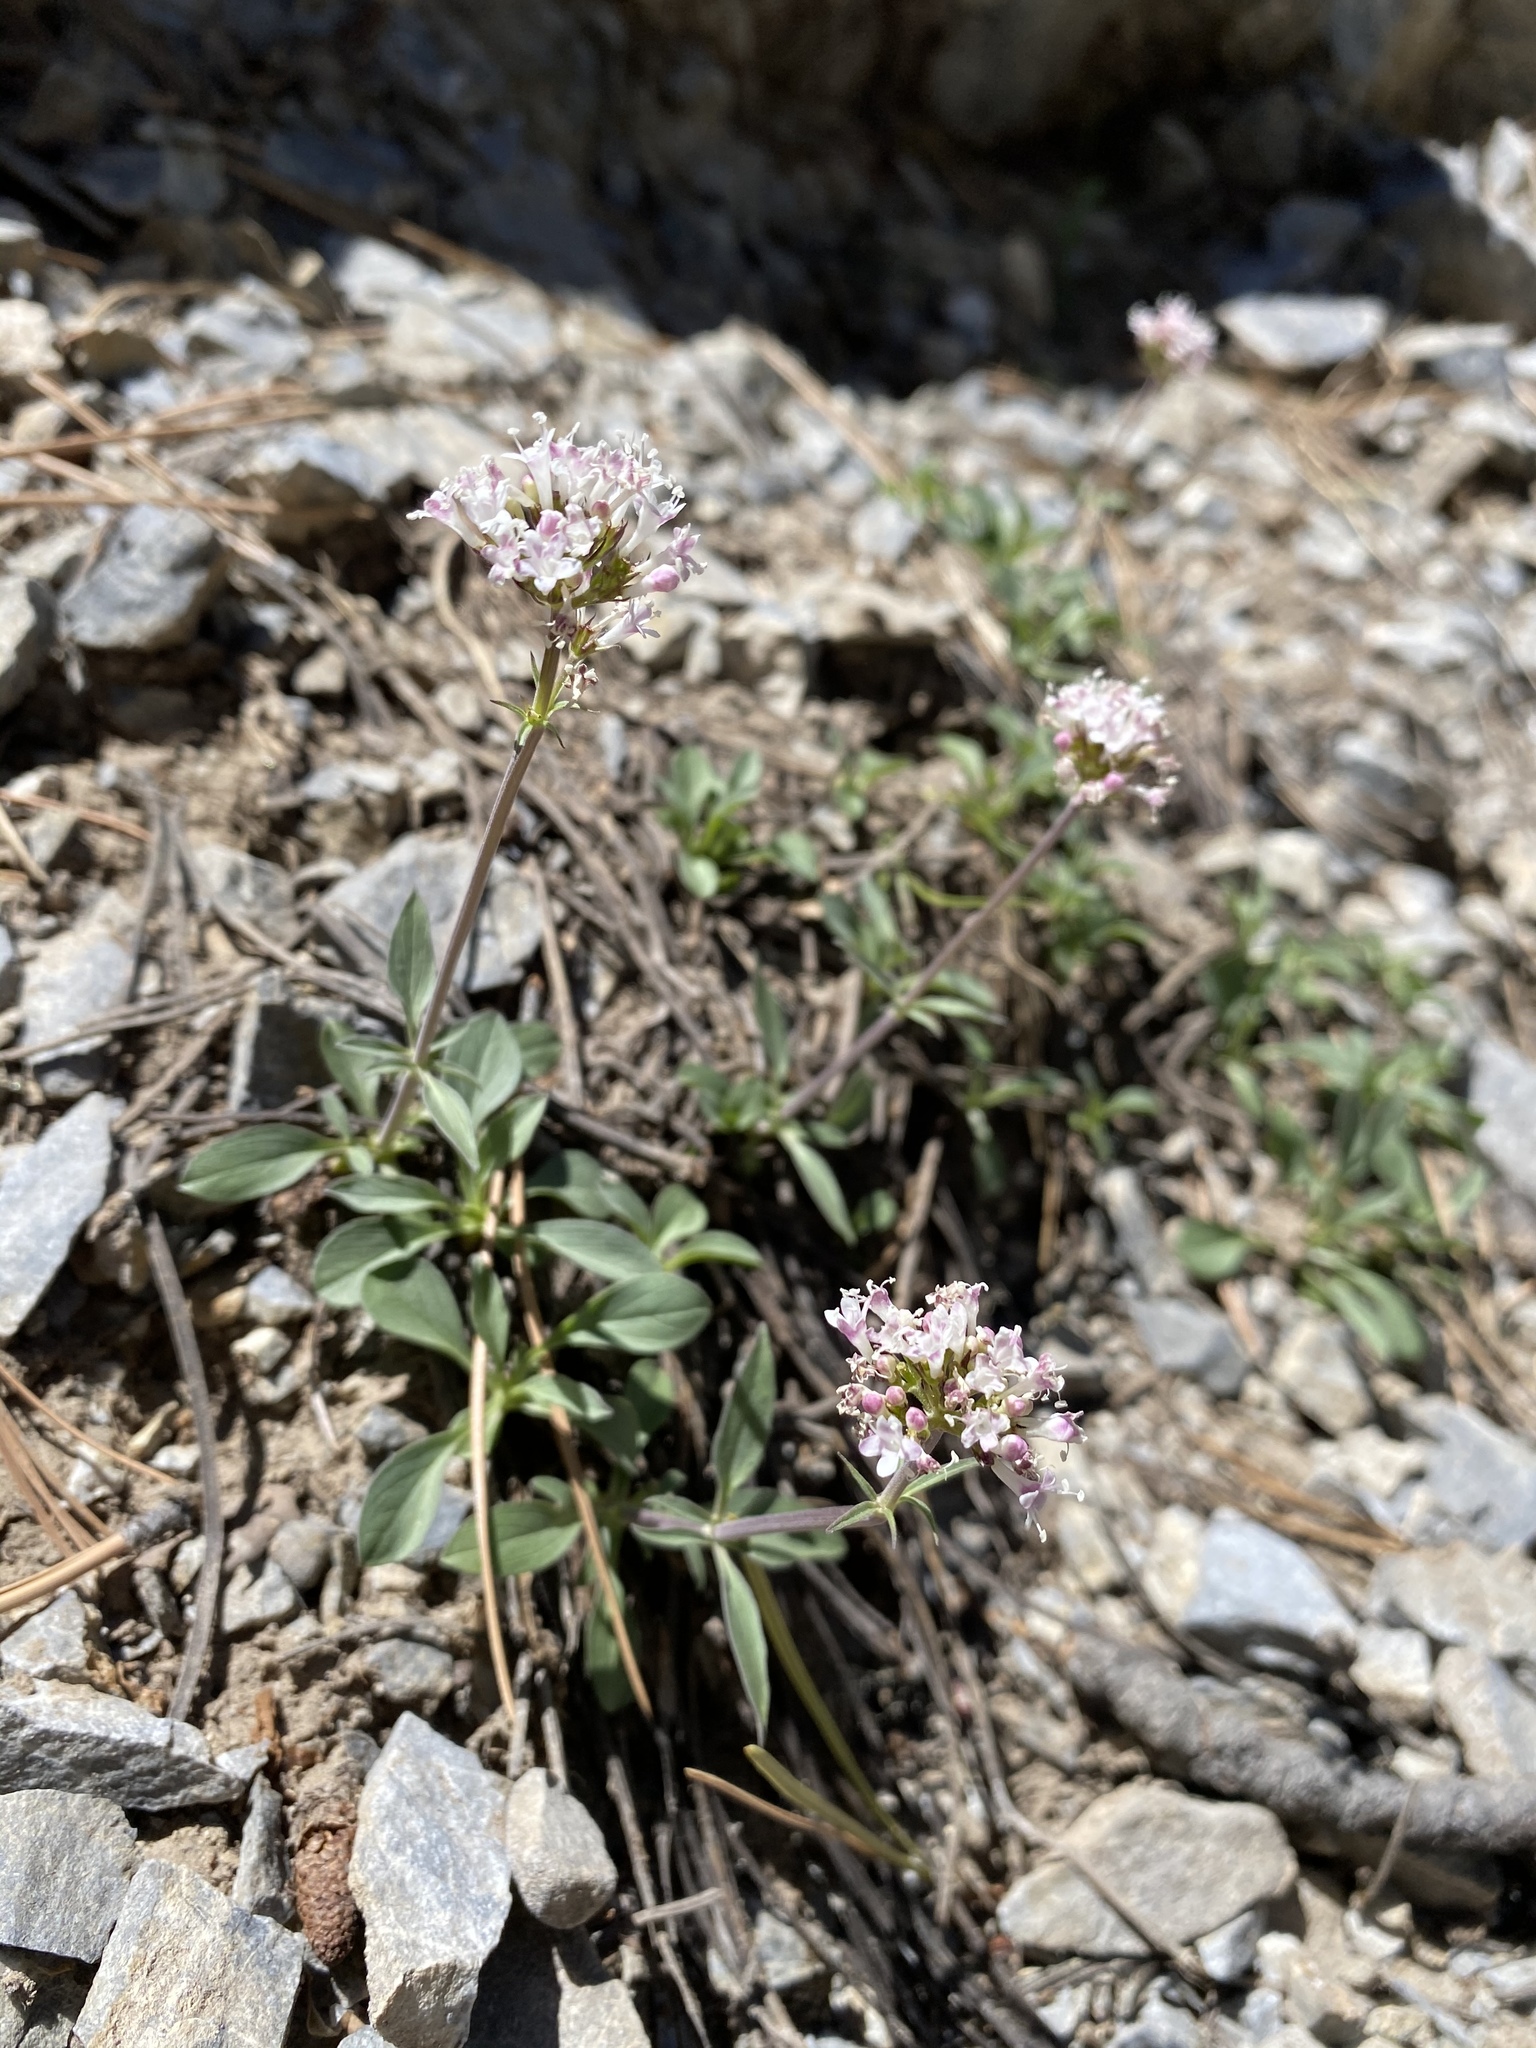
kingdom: Plantae
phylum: Tracheophyta
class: Magnoliopsida
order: Dipsacales
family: Caprifoliaceae
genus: Valeriana
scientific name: Valeriana acutiloba
